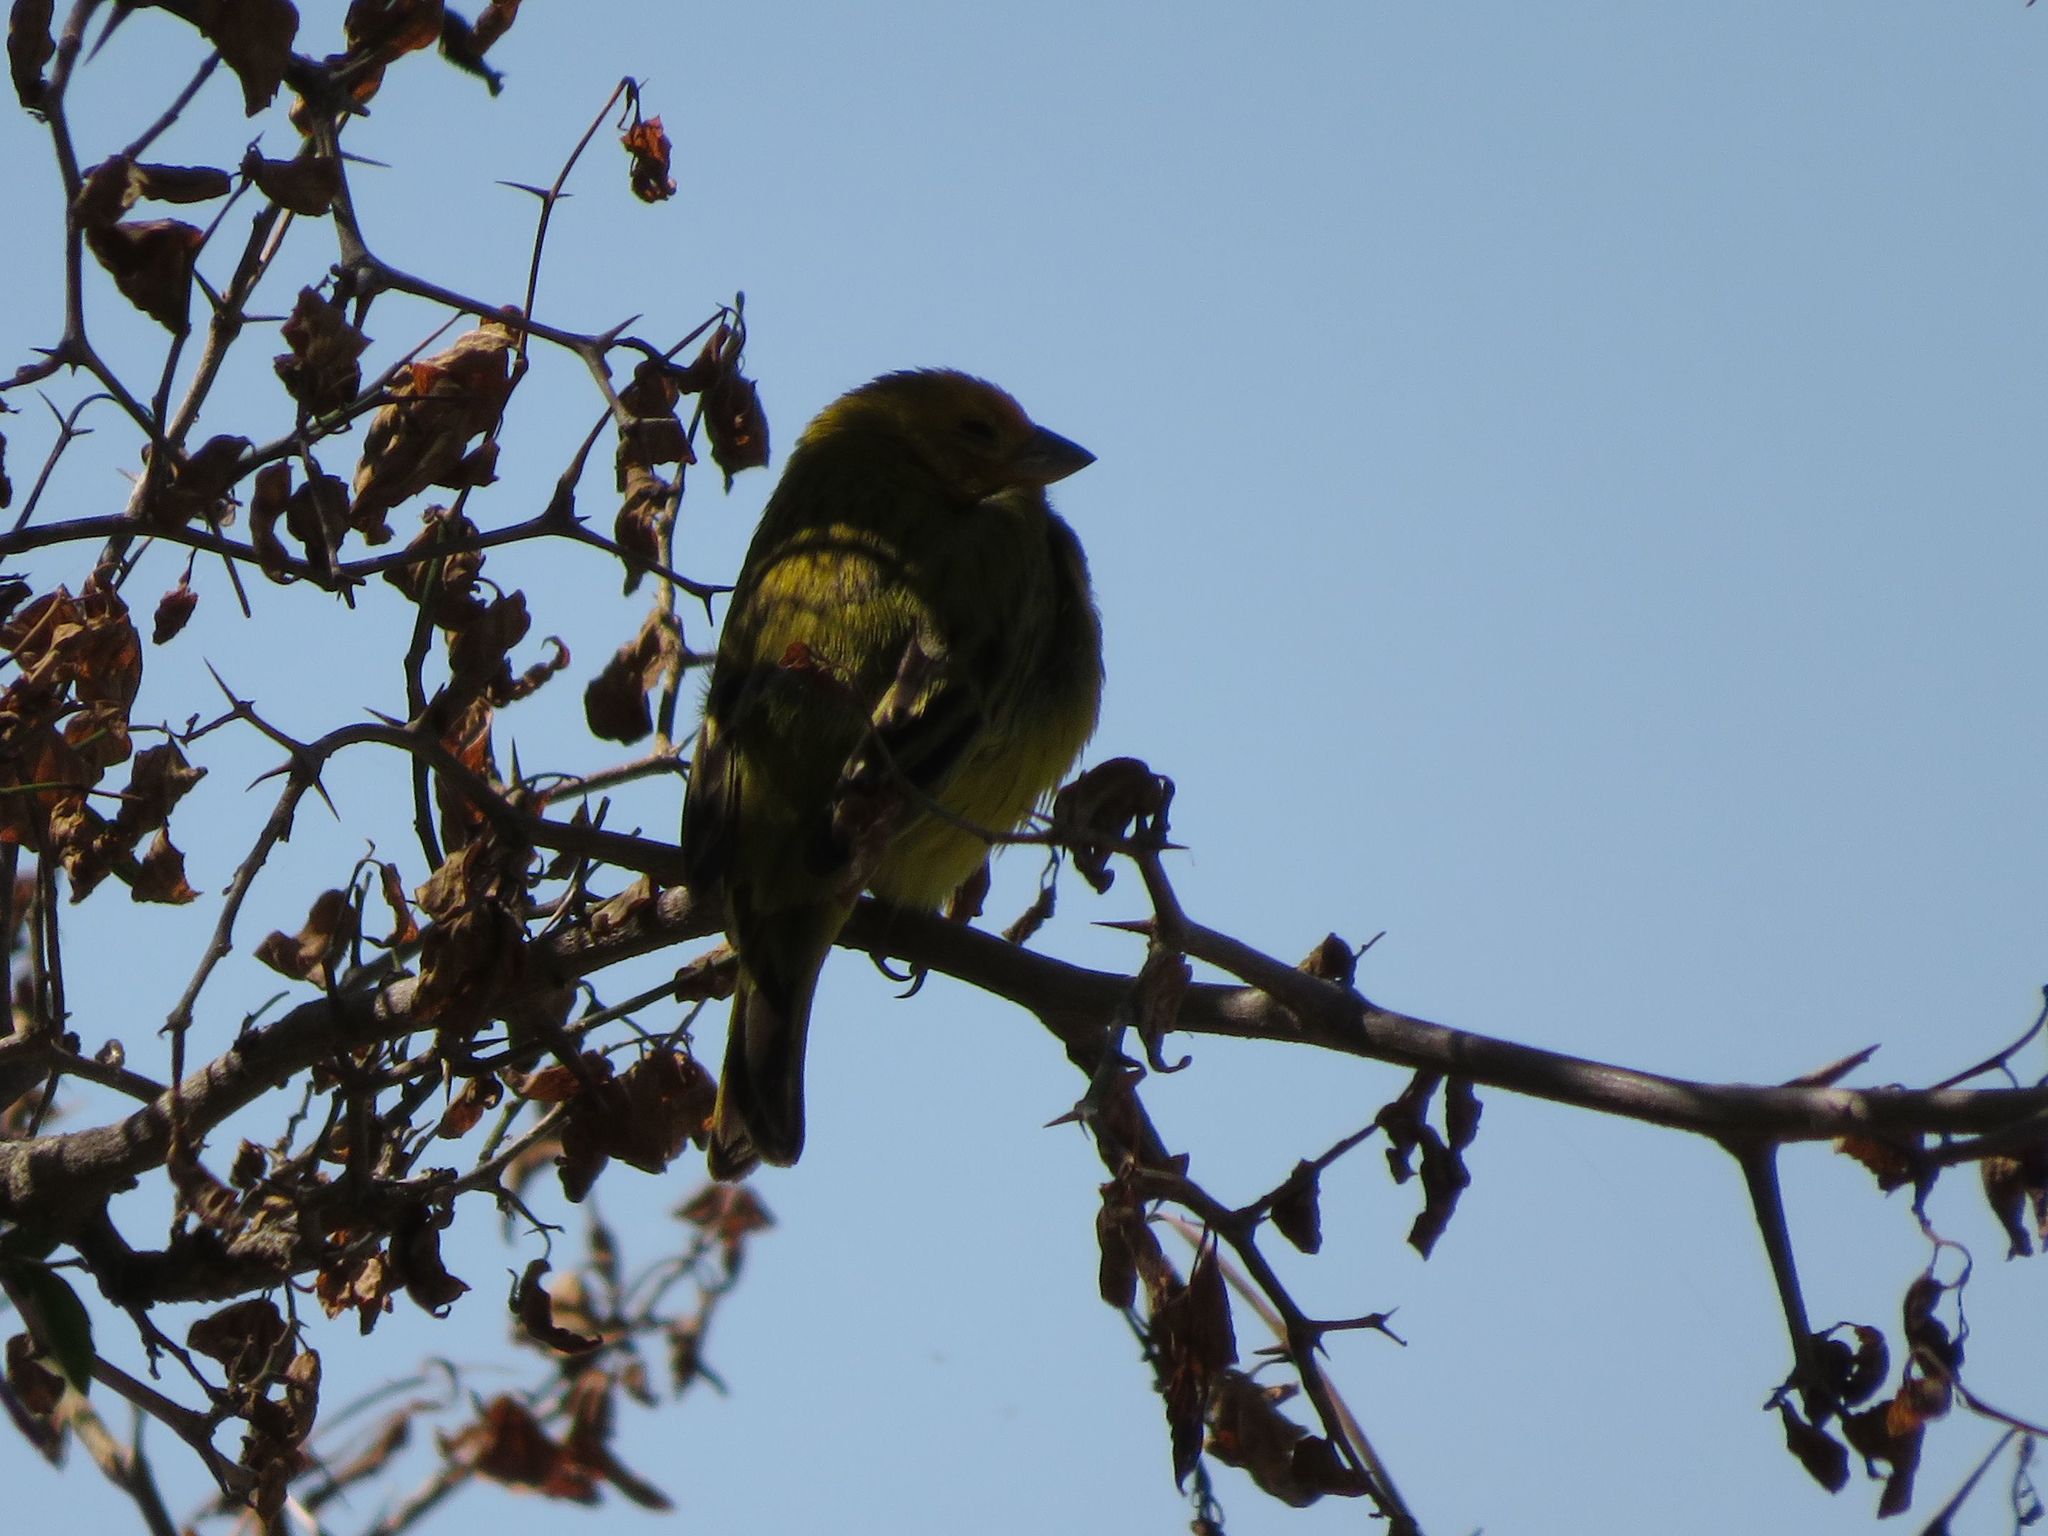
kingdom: Animalia
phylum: Chordata
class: Aves
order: Passeriformes
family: Thraupidae
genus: Sicalis
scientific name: Sicalis flaveola
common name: Saffron finch
